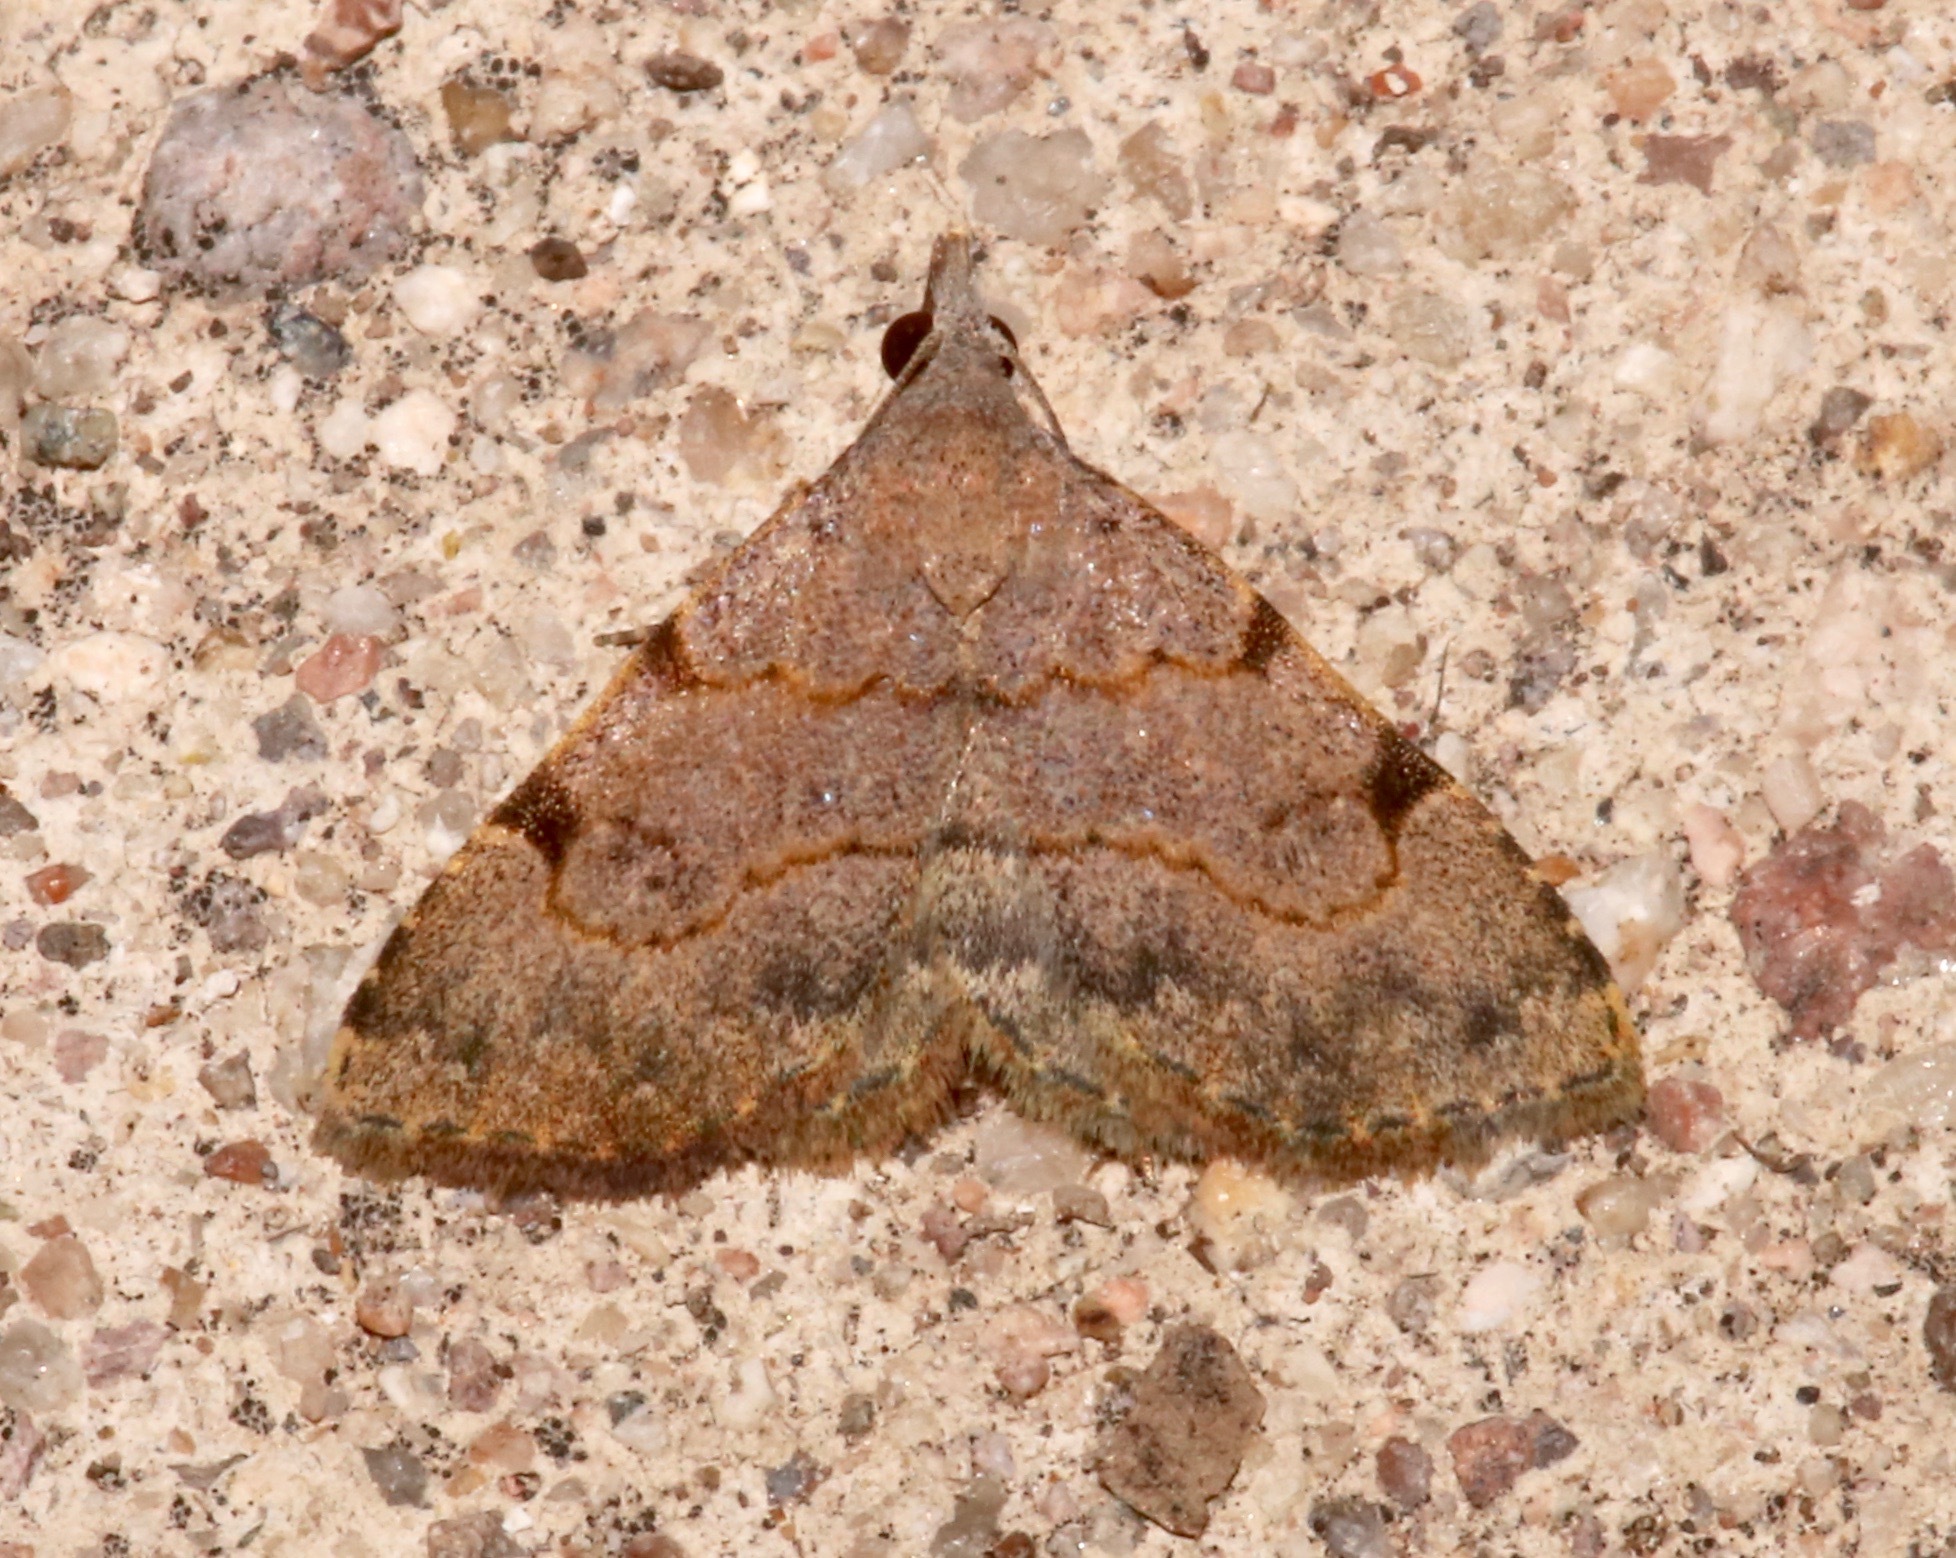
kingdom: Animalia
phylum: Arthropoda
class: Insecta
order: Lepidoptera
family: Erebidae
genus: Nychioptera
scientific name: Nychioptera accola
